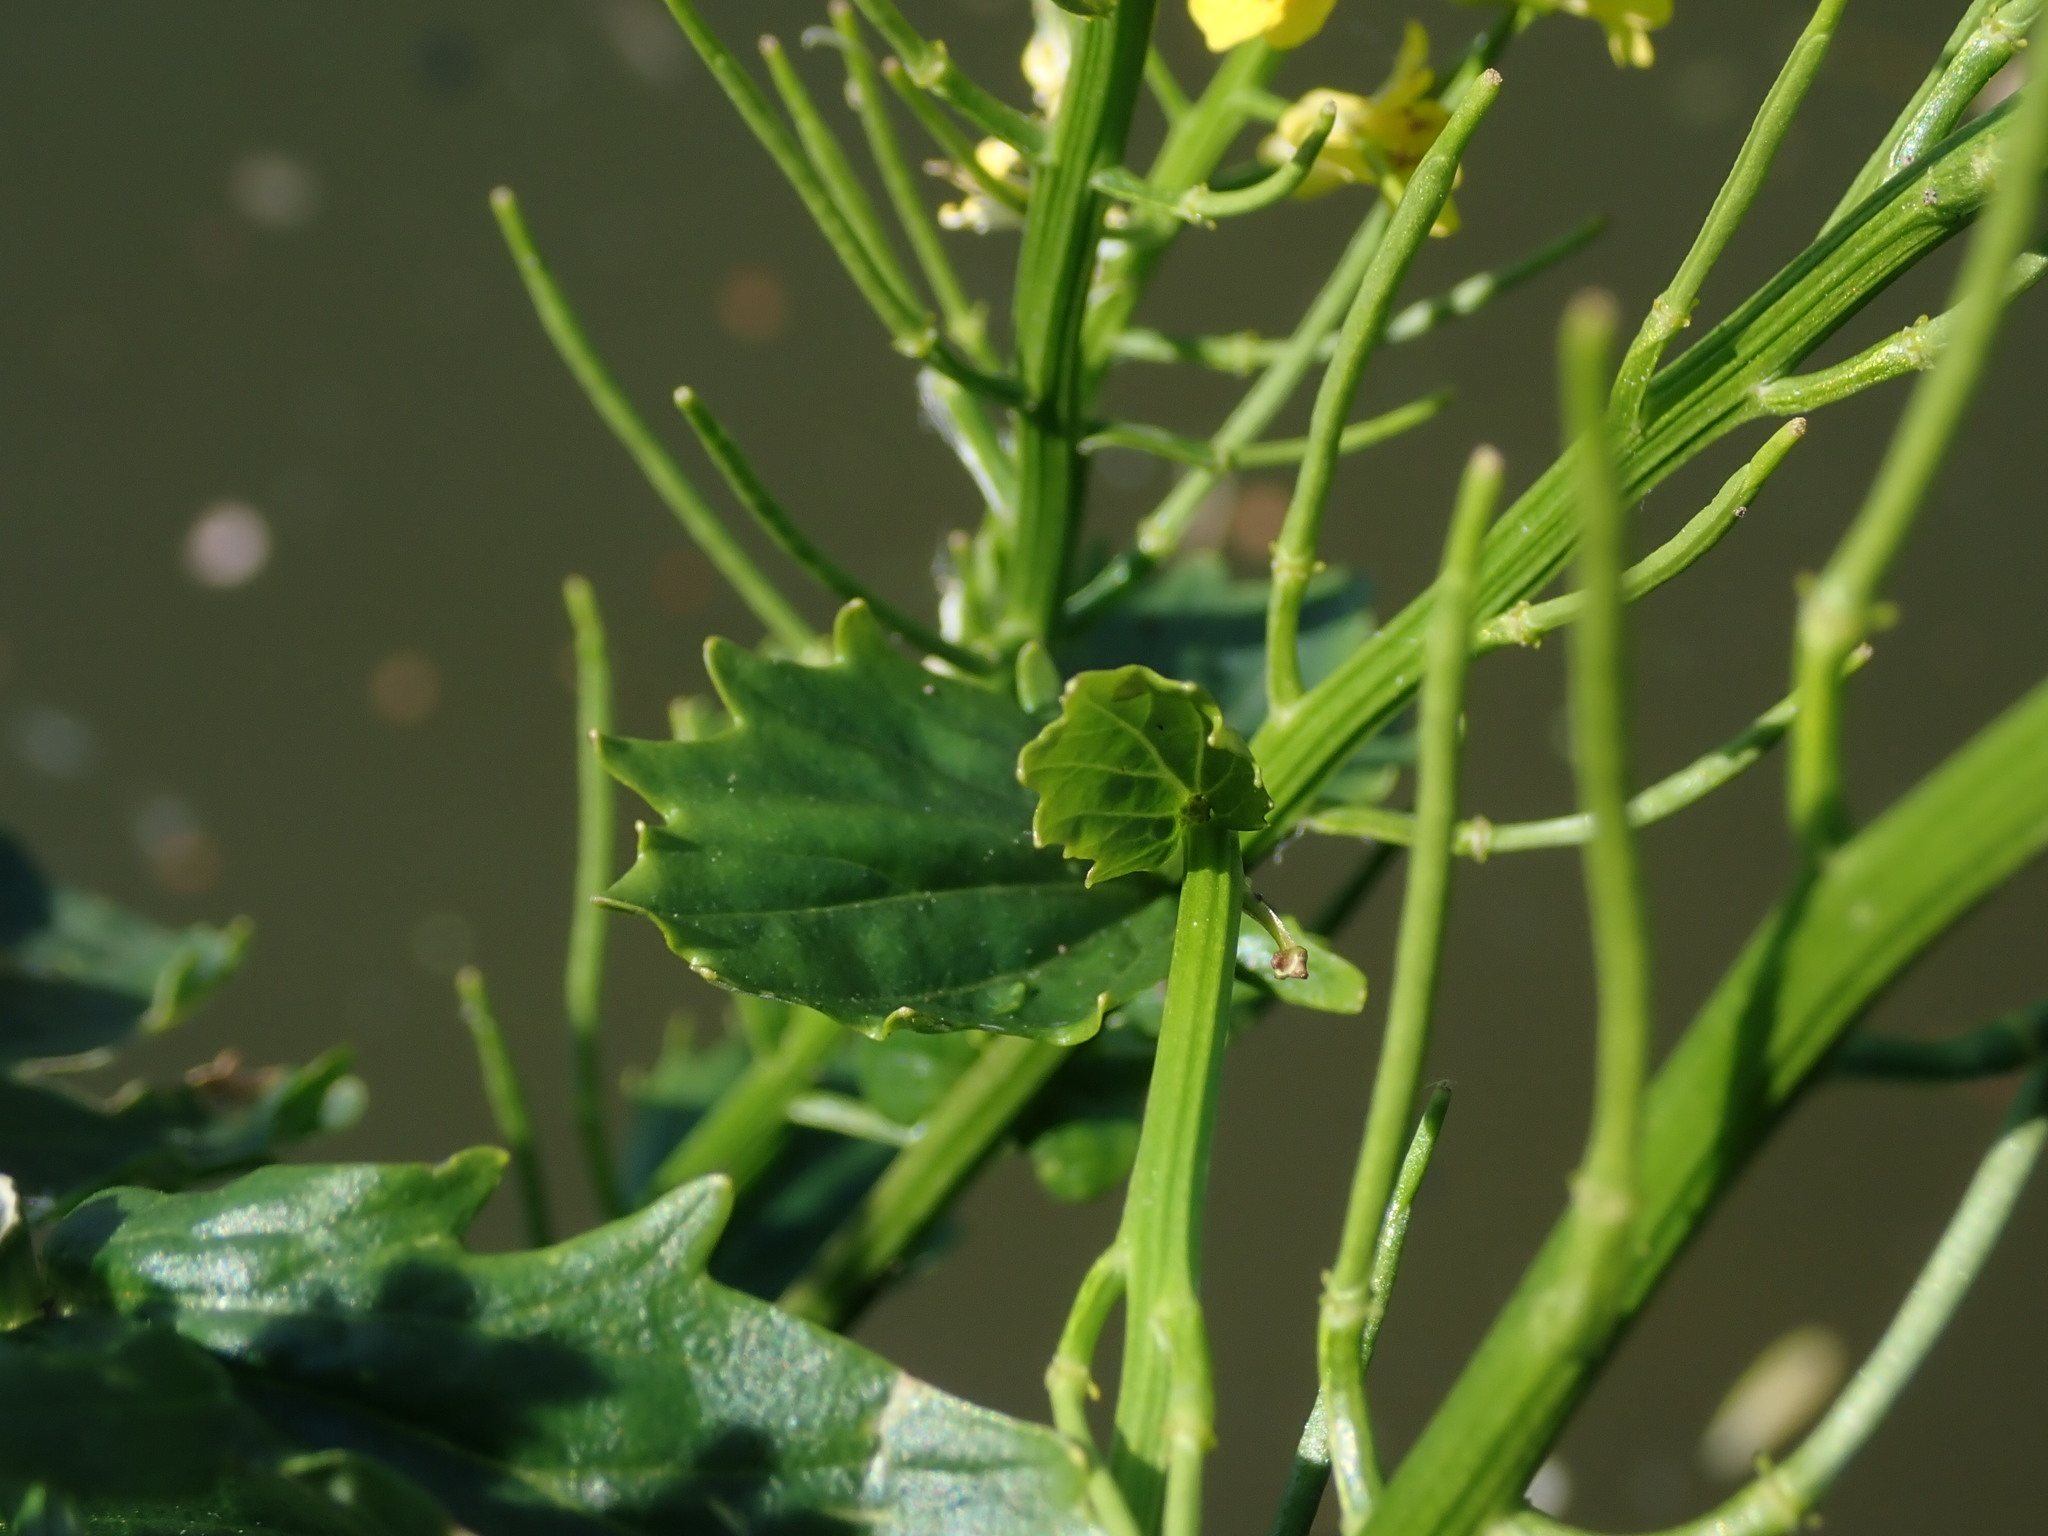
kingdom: Plantae
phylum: Tracheophyta
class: Magnoliopsida
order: Brassicales
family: Brassicaceae
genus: Barbarea
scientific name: Barbarea vulgaris
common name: Cressy-greens
